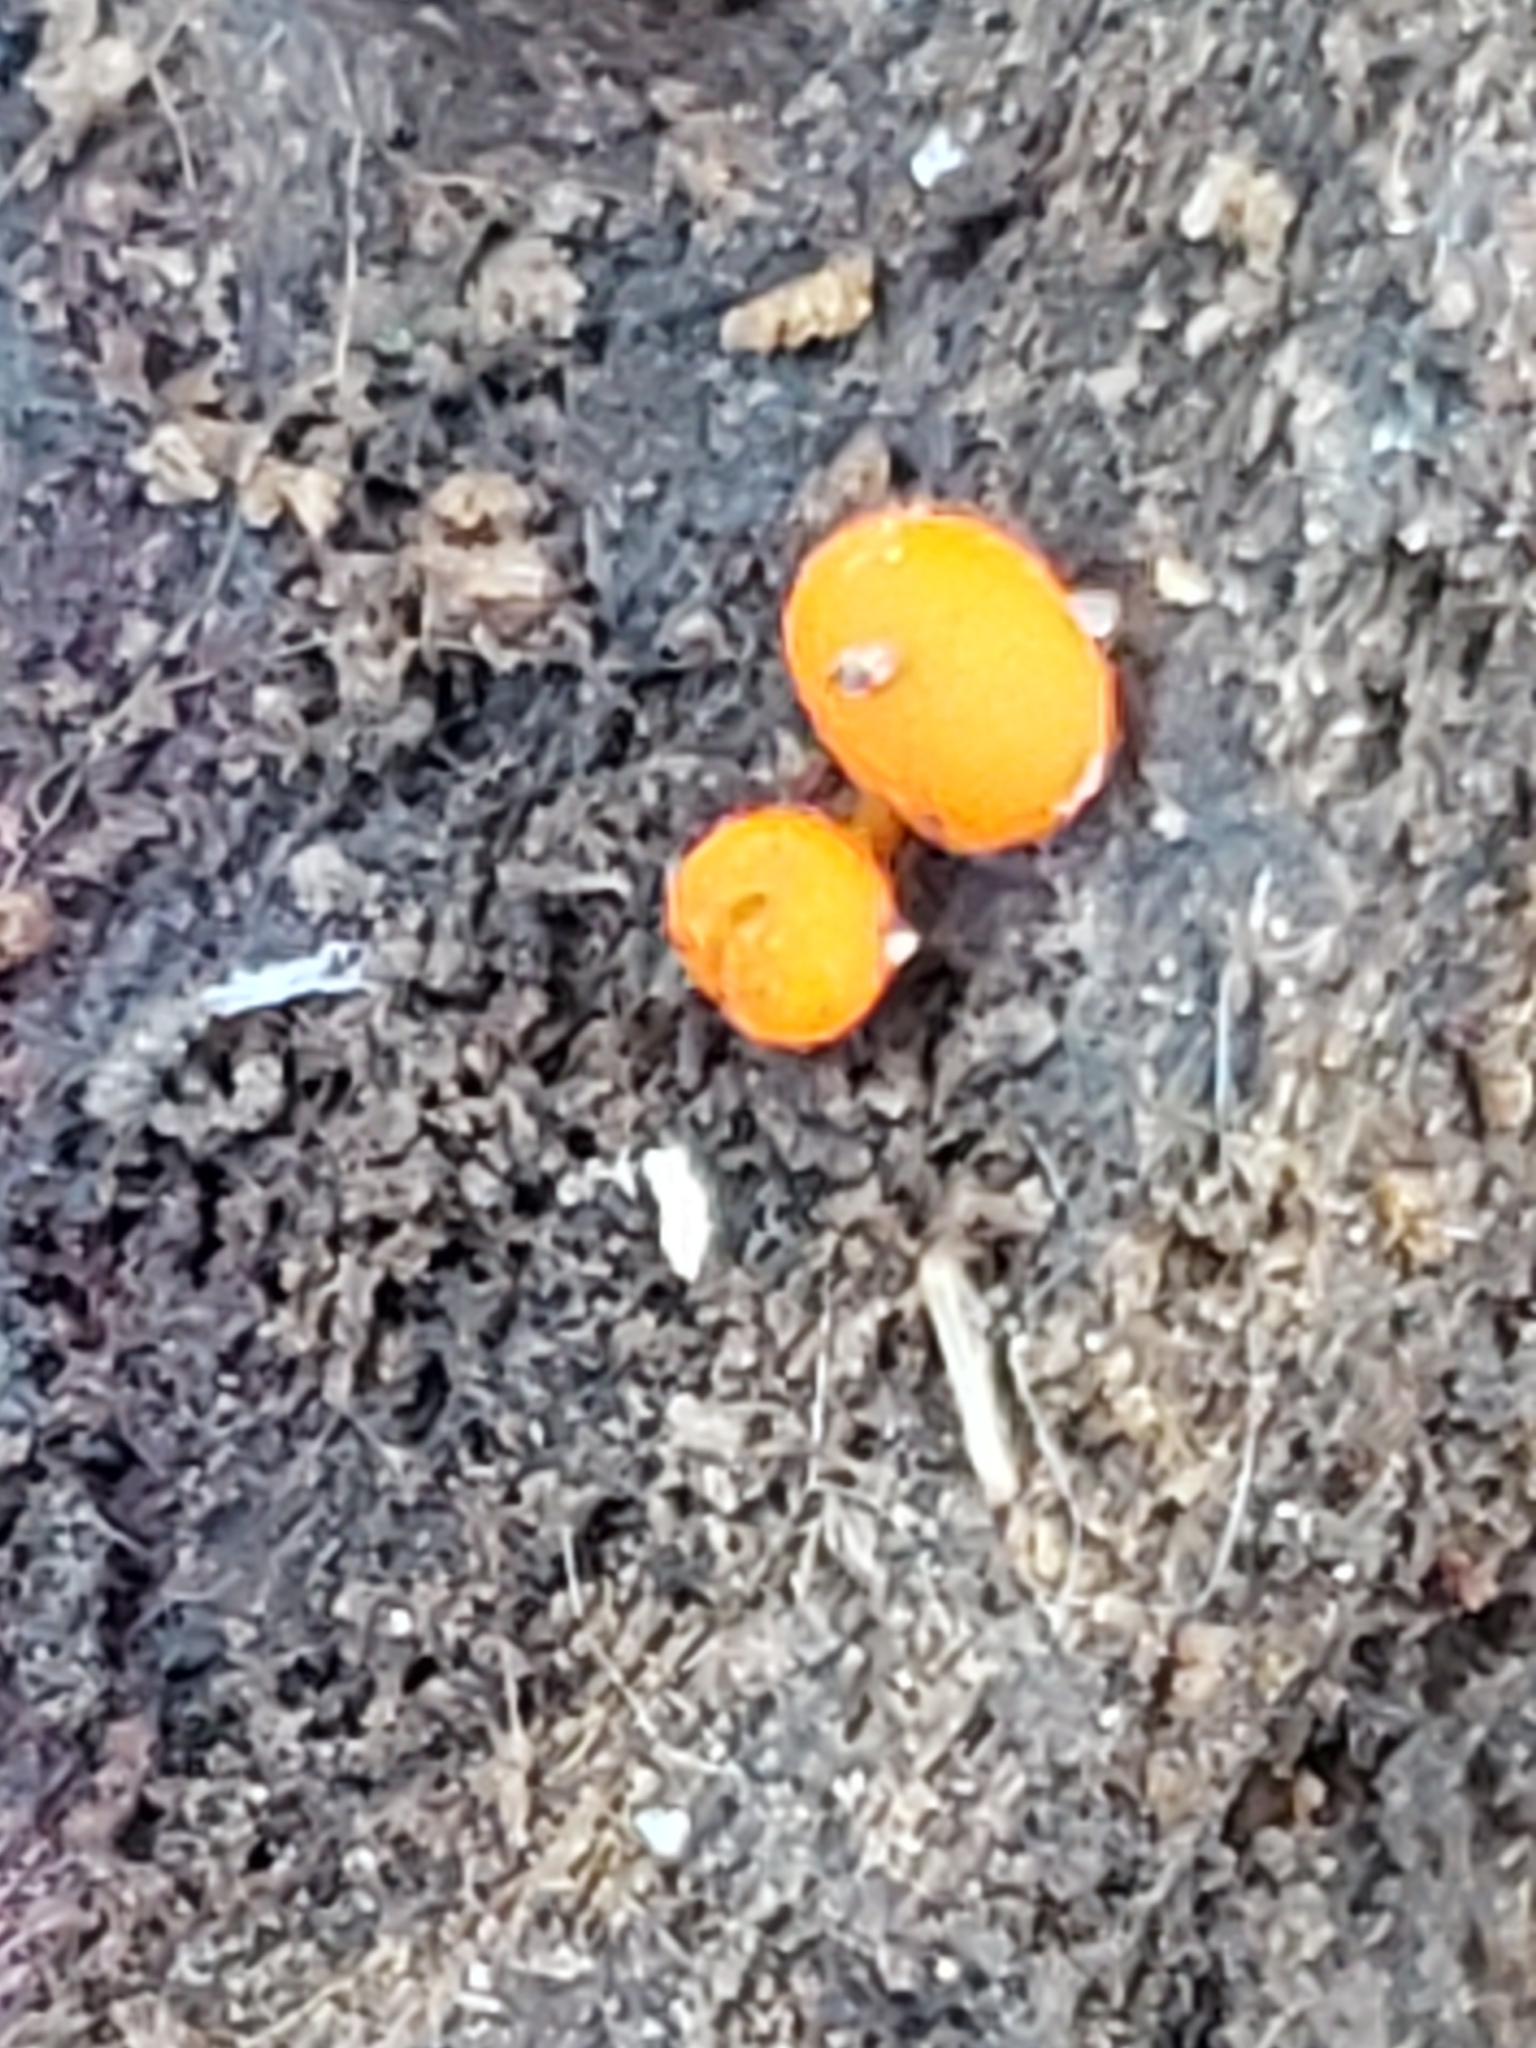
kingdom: Fungi
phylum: Basidiomycota
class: Dacrymycetes
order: Dacrymycetales
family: Dacrymycetaceae
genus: Dacrymyces
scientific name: Dacrymyces stillatus
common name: Common jelly spot
